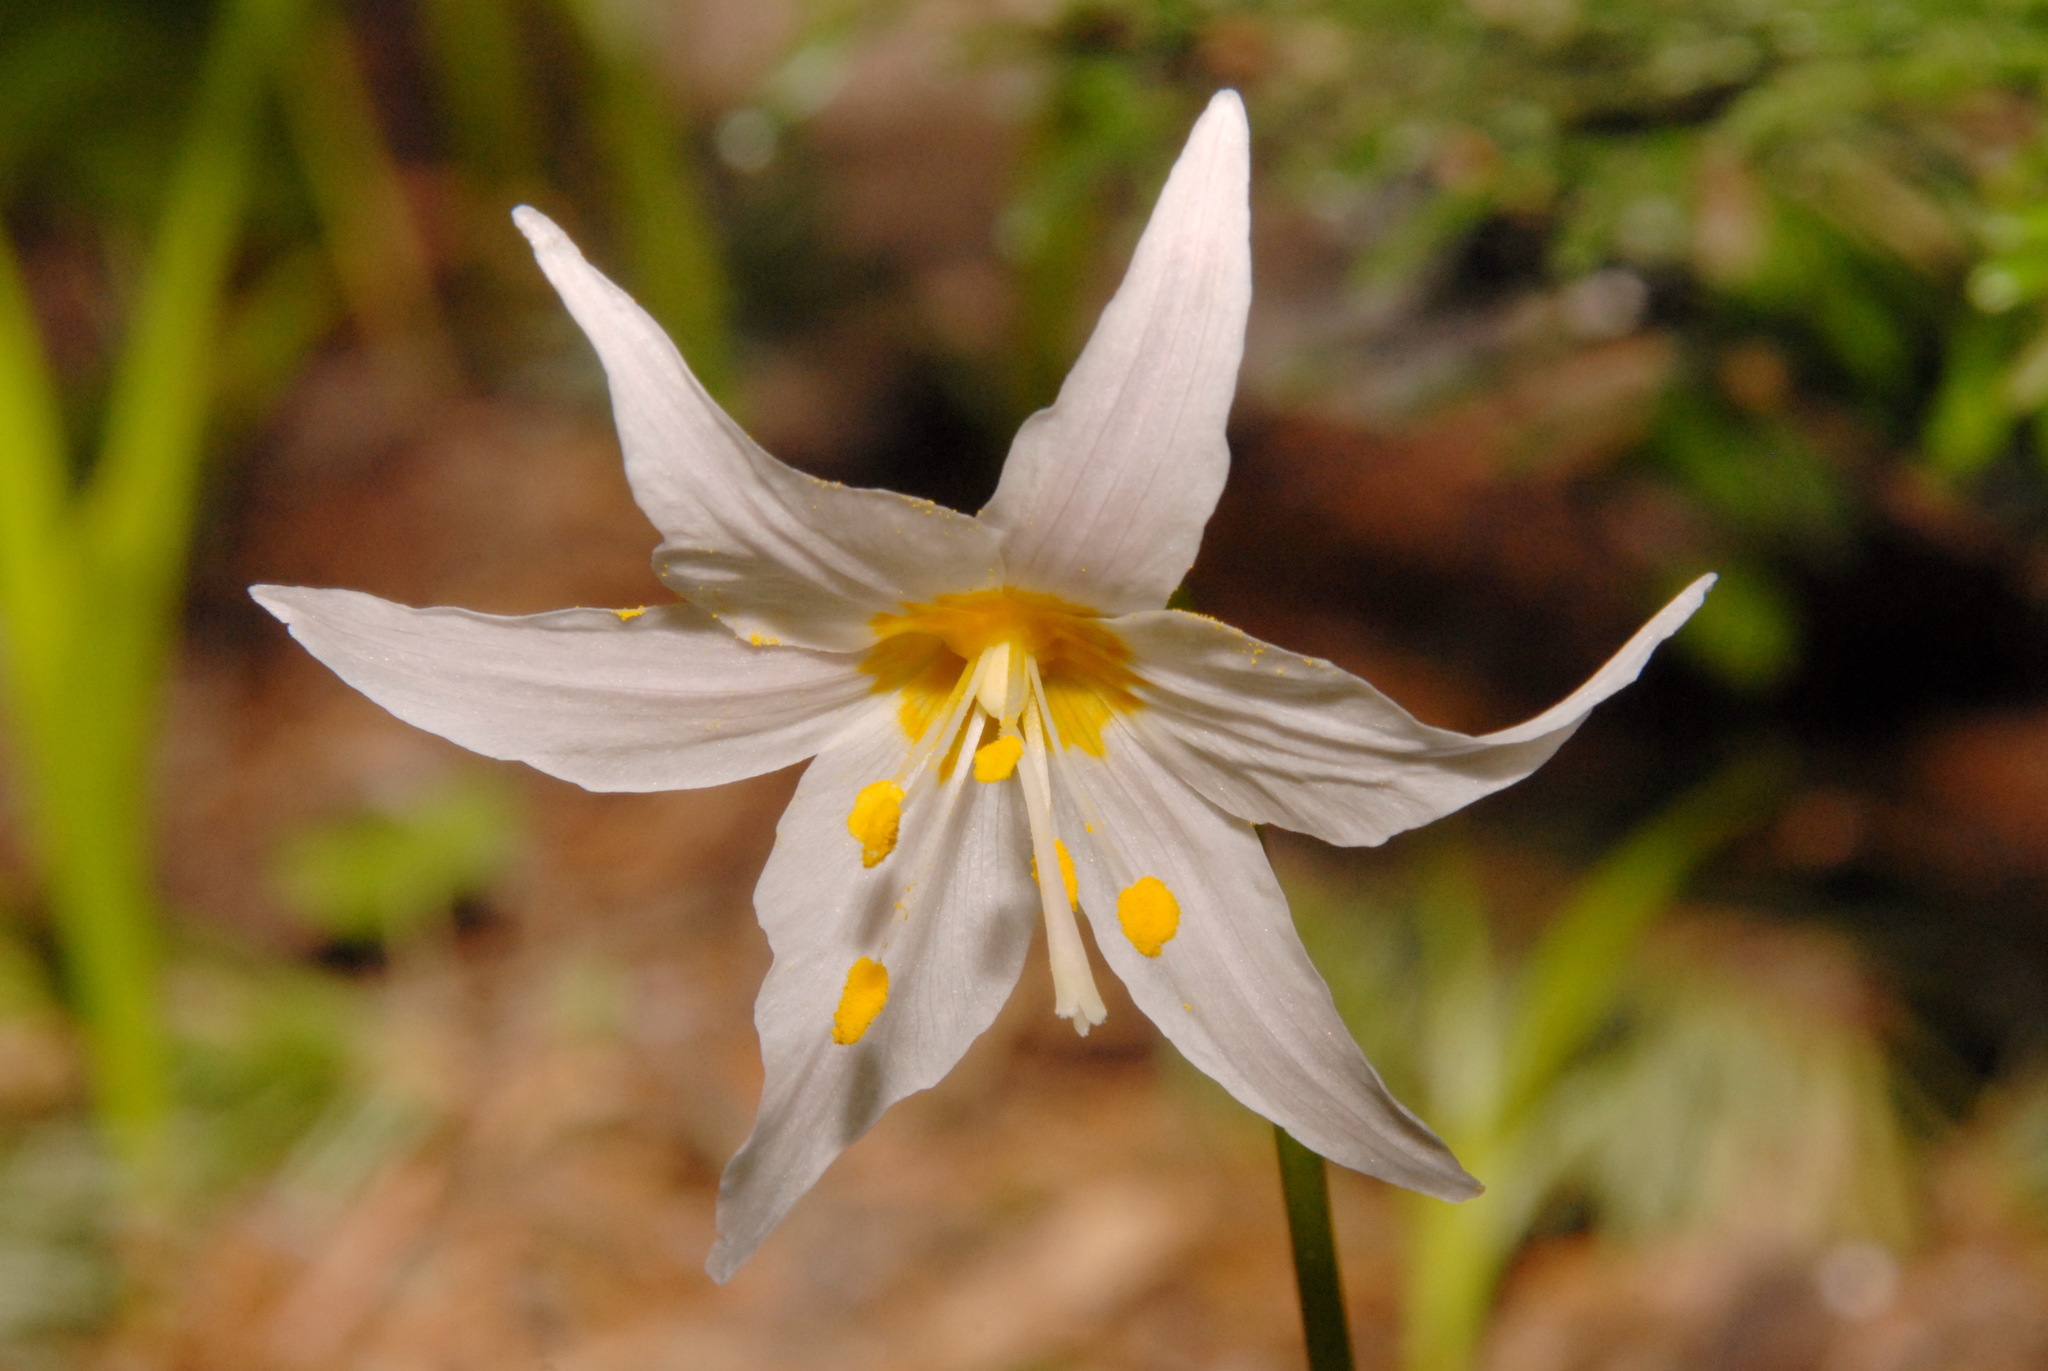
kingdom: Plantae
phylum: Tracheophyta
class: Liliopsida
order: Liliales
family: Liliaceae
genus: Erythronium
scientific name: Erythronium montanum
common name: Avalanche lily
